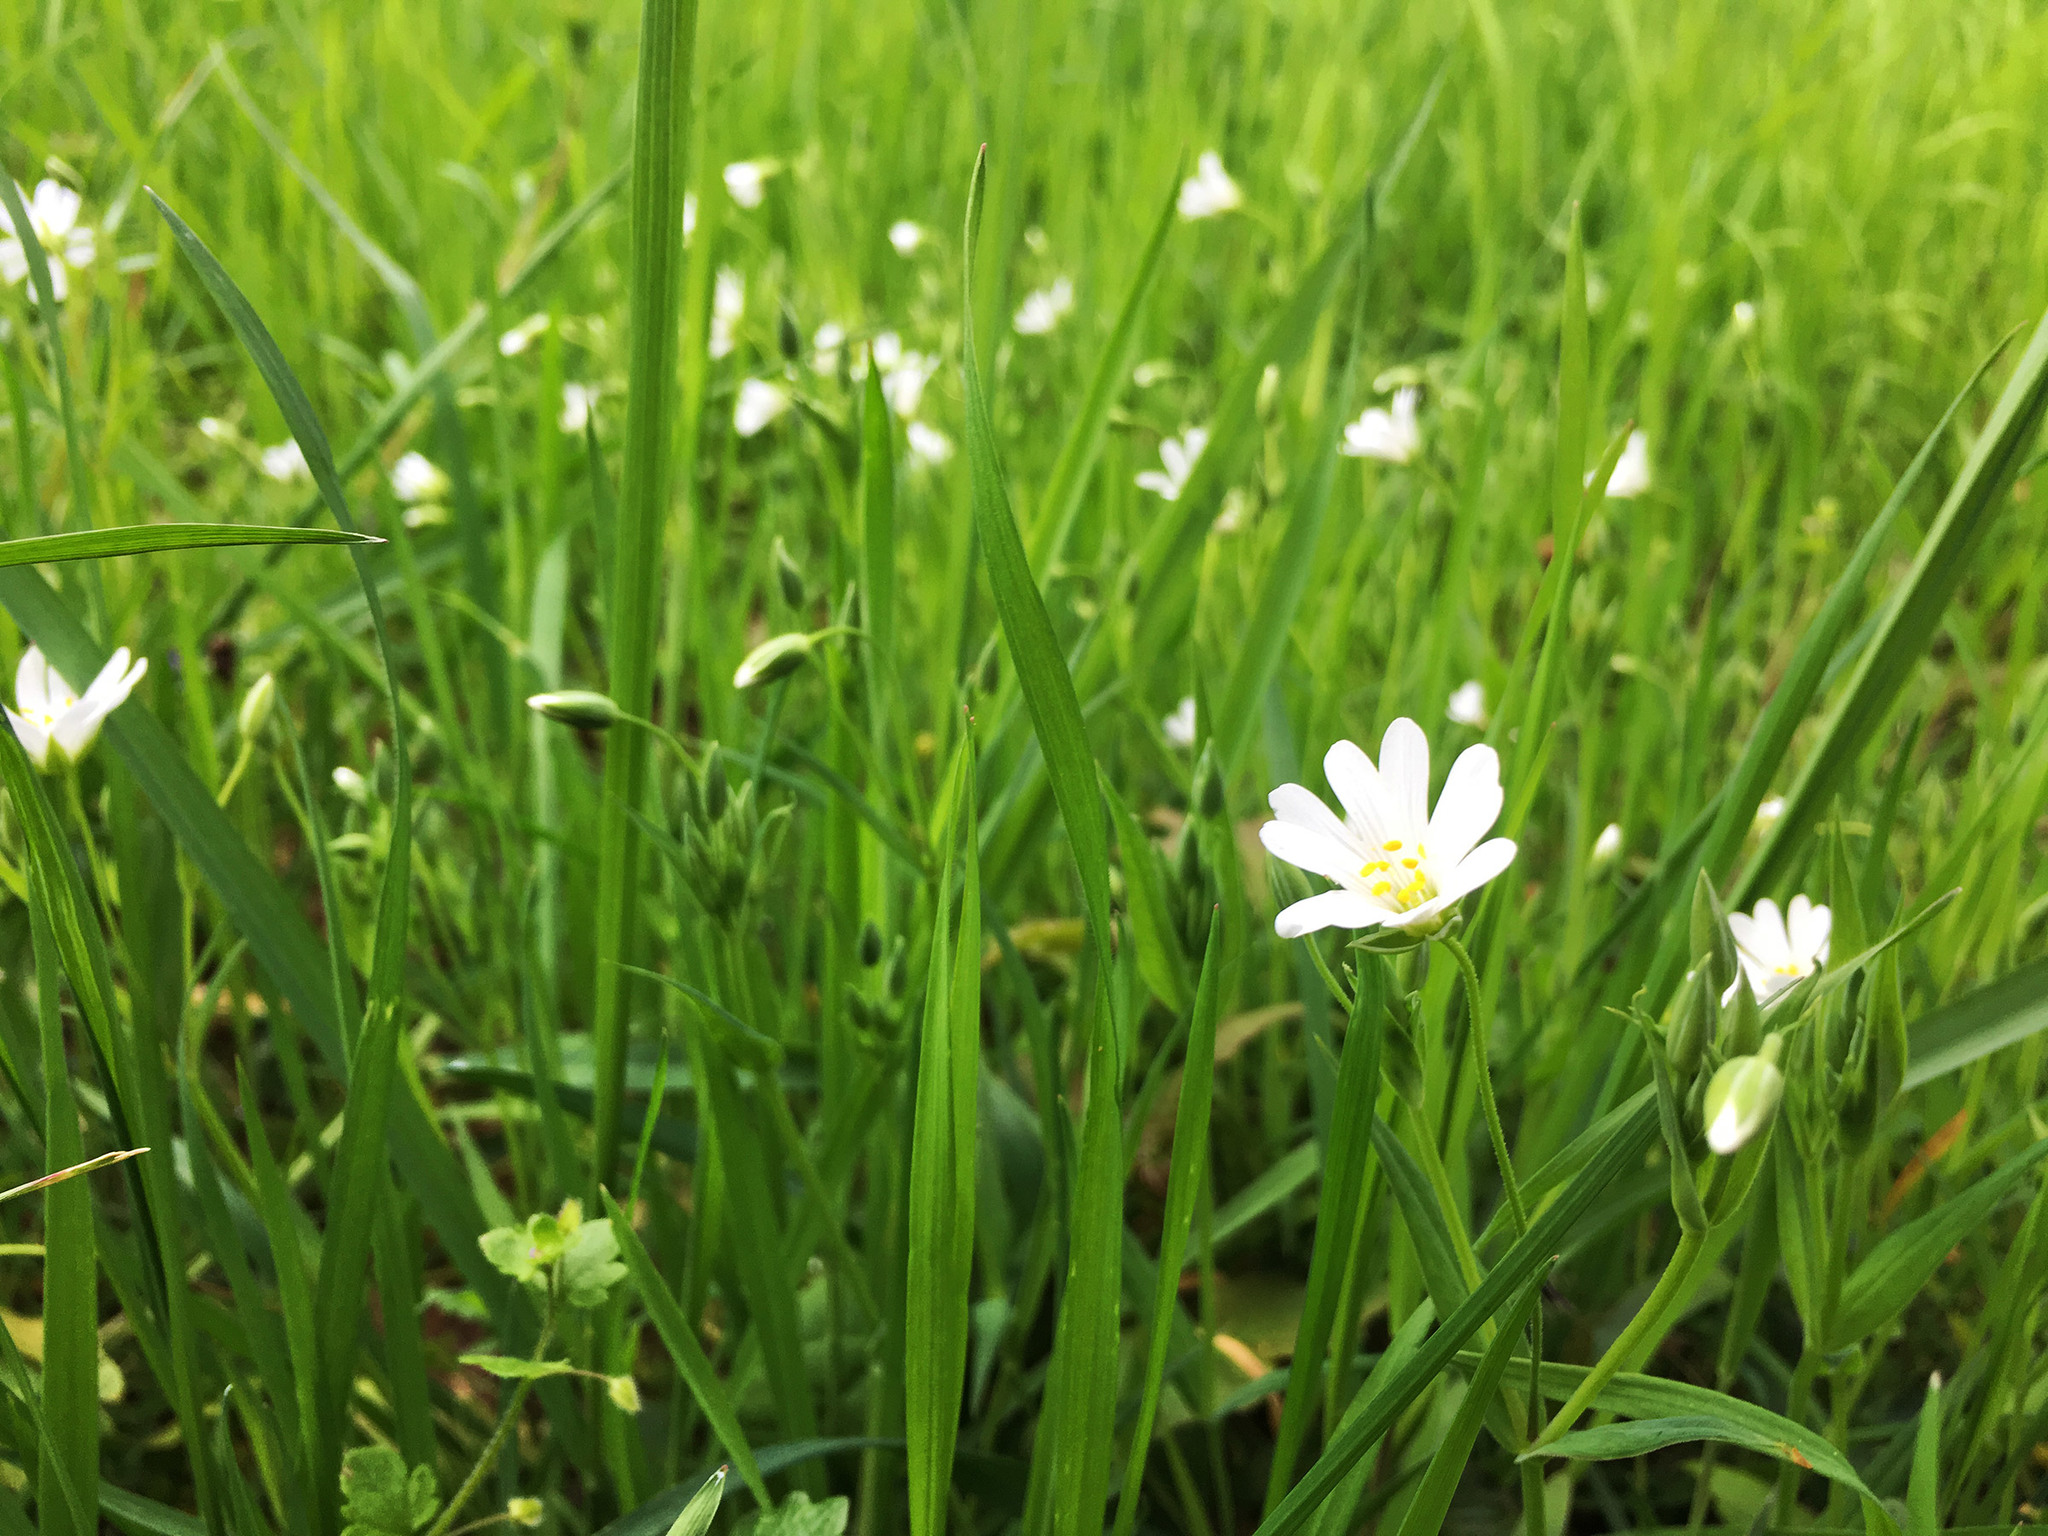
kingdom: Plantae
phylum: Tracheophyta
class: Magnoliopsida
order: Caryophyllales
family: Caryophyllaceae
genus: Rabelera
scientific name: Rabelera holostea
